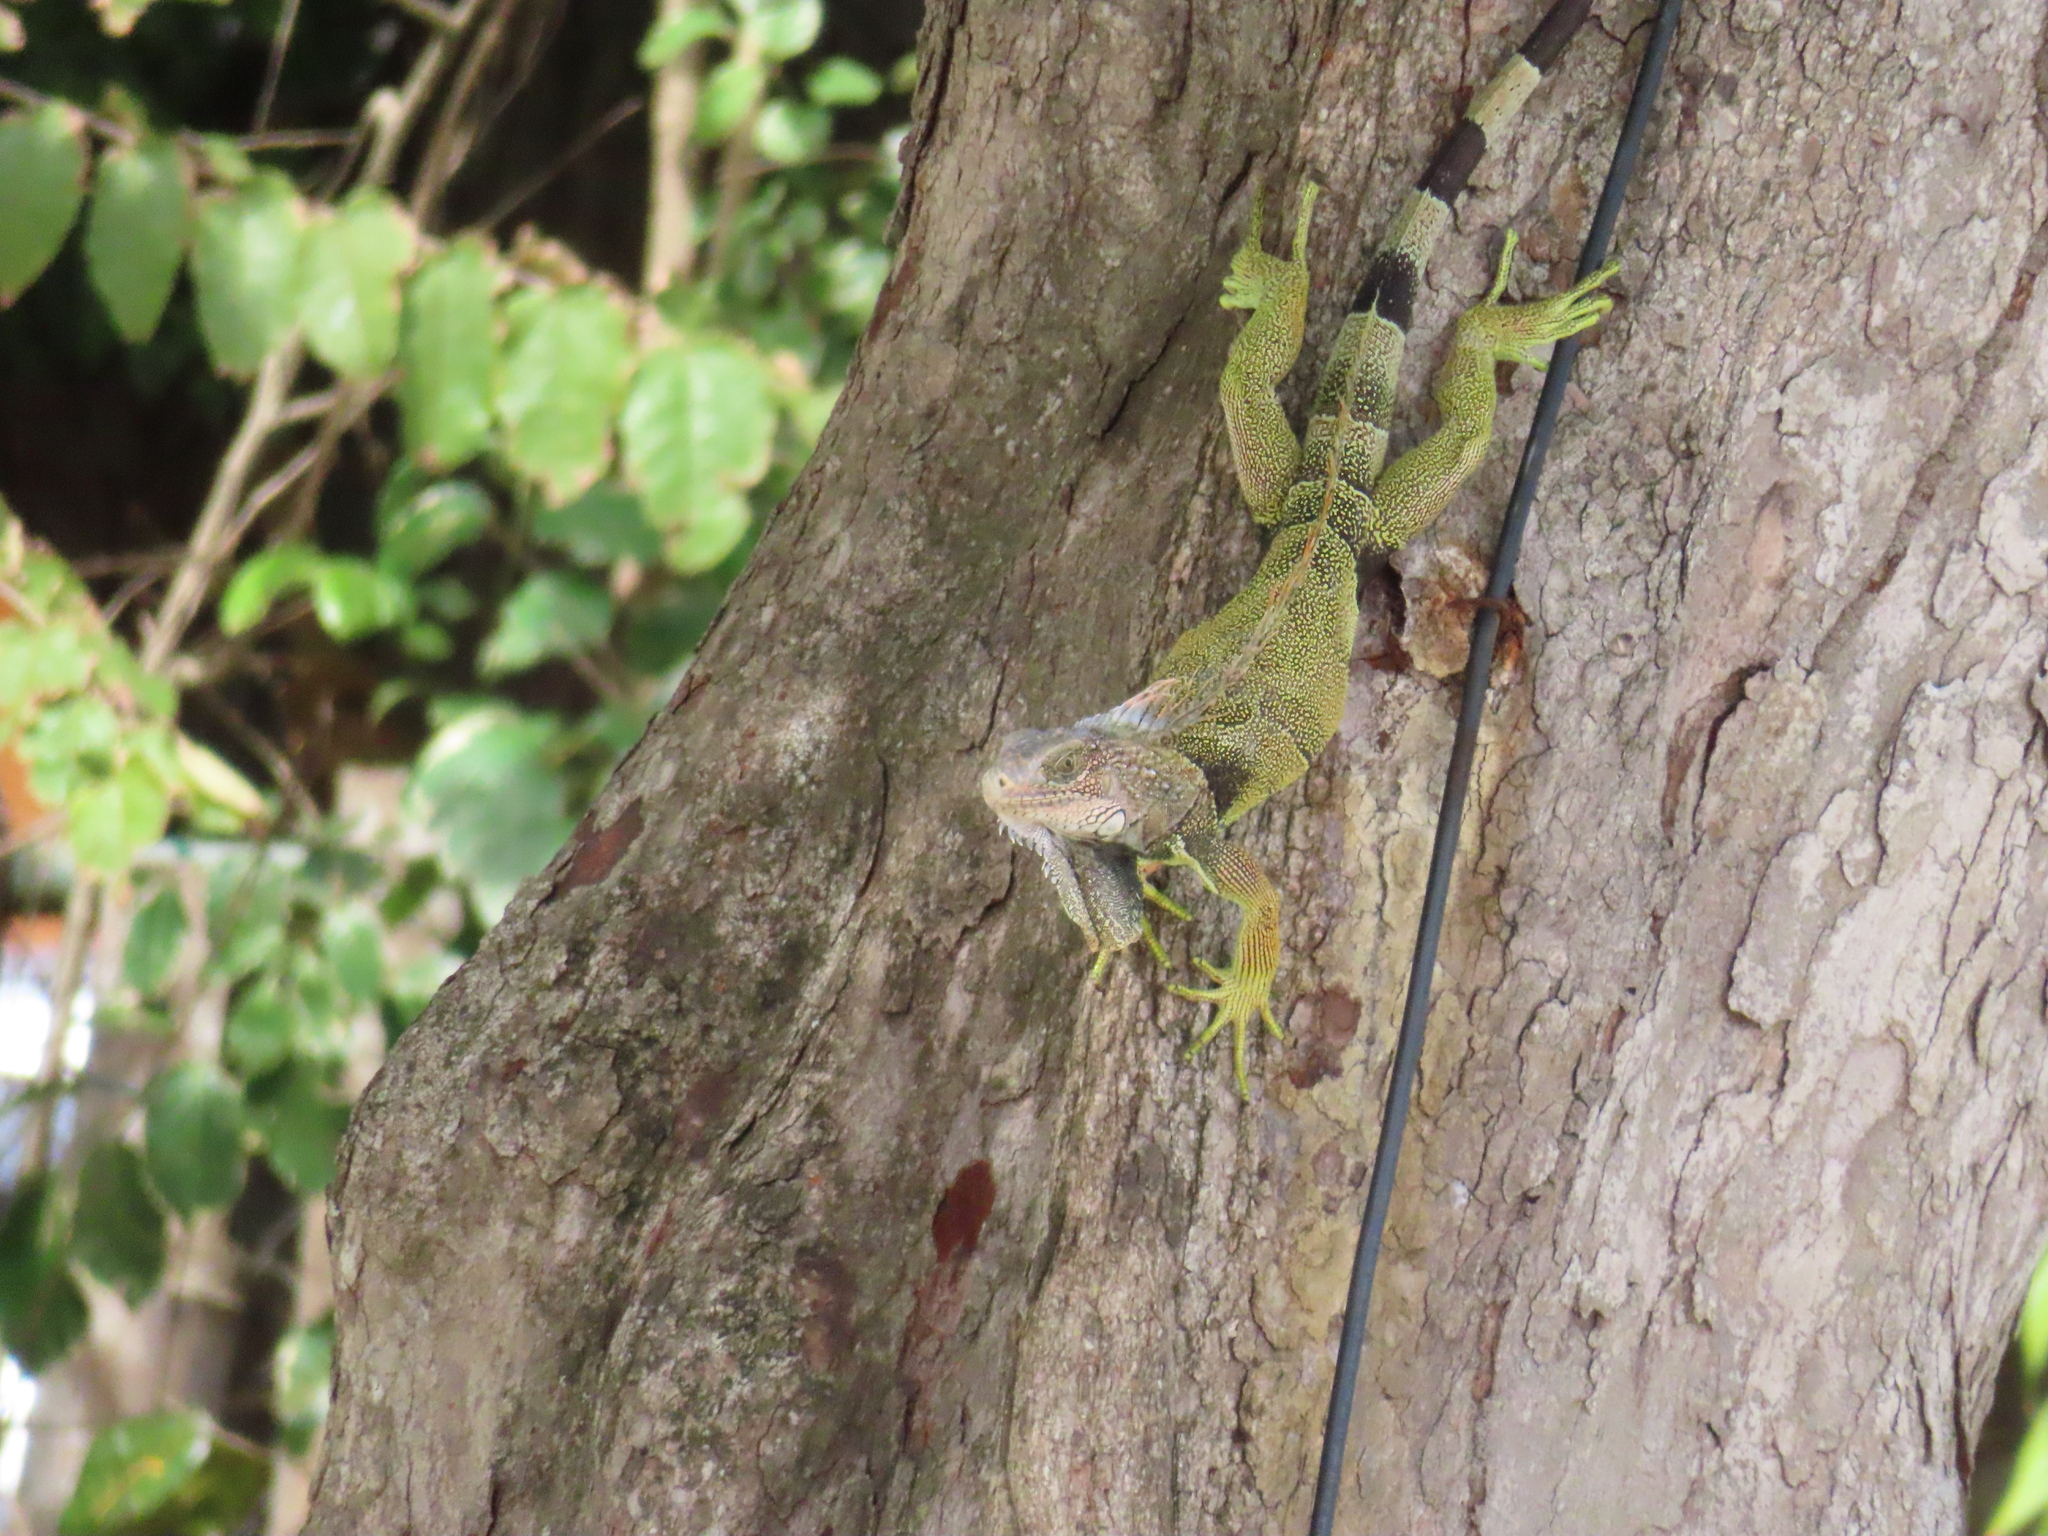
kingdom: Animalia
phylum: Chordata
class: Squamata
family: Iguanidae
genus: Iguana
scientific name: Iguana iguana
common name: Green iguana
